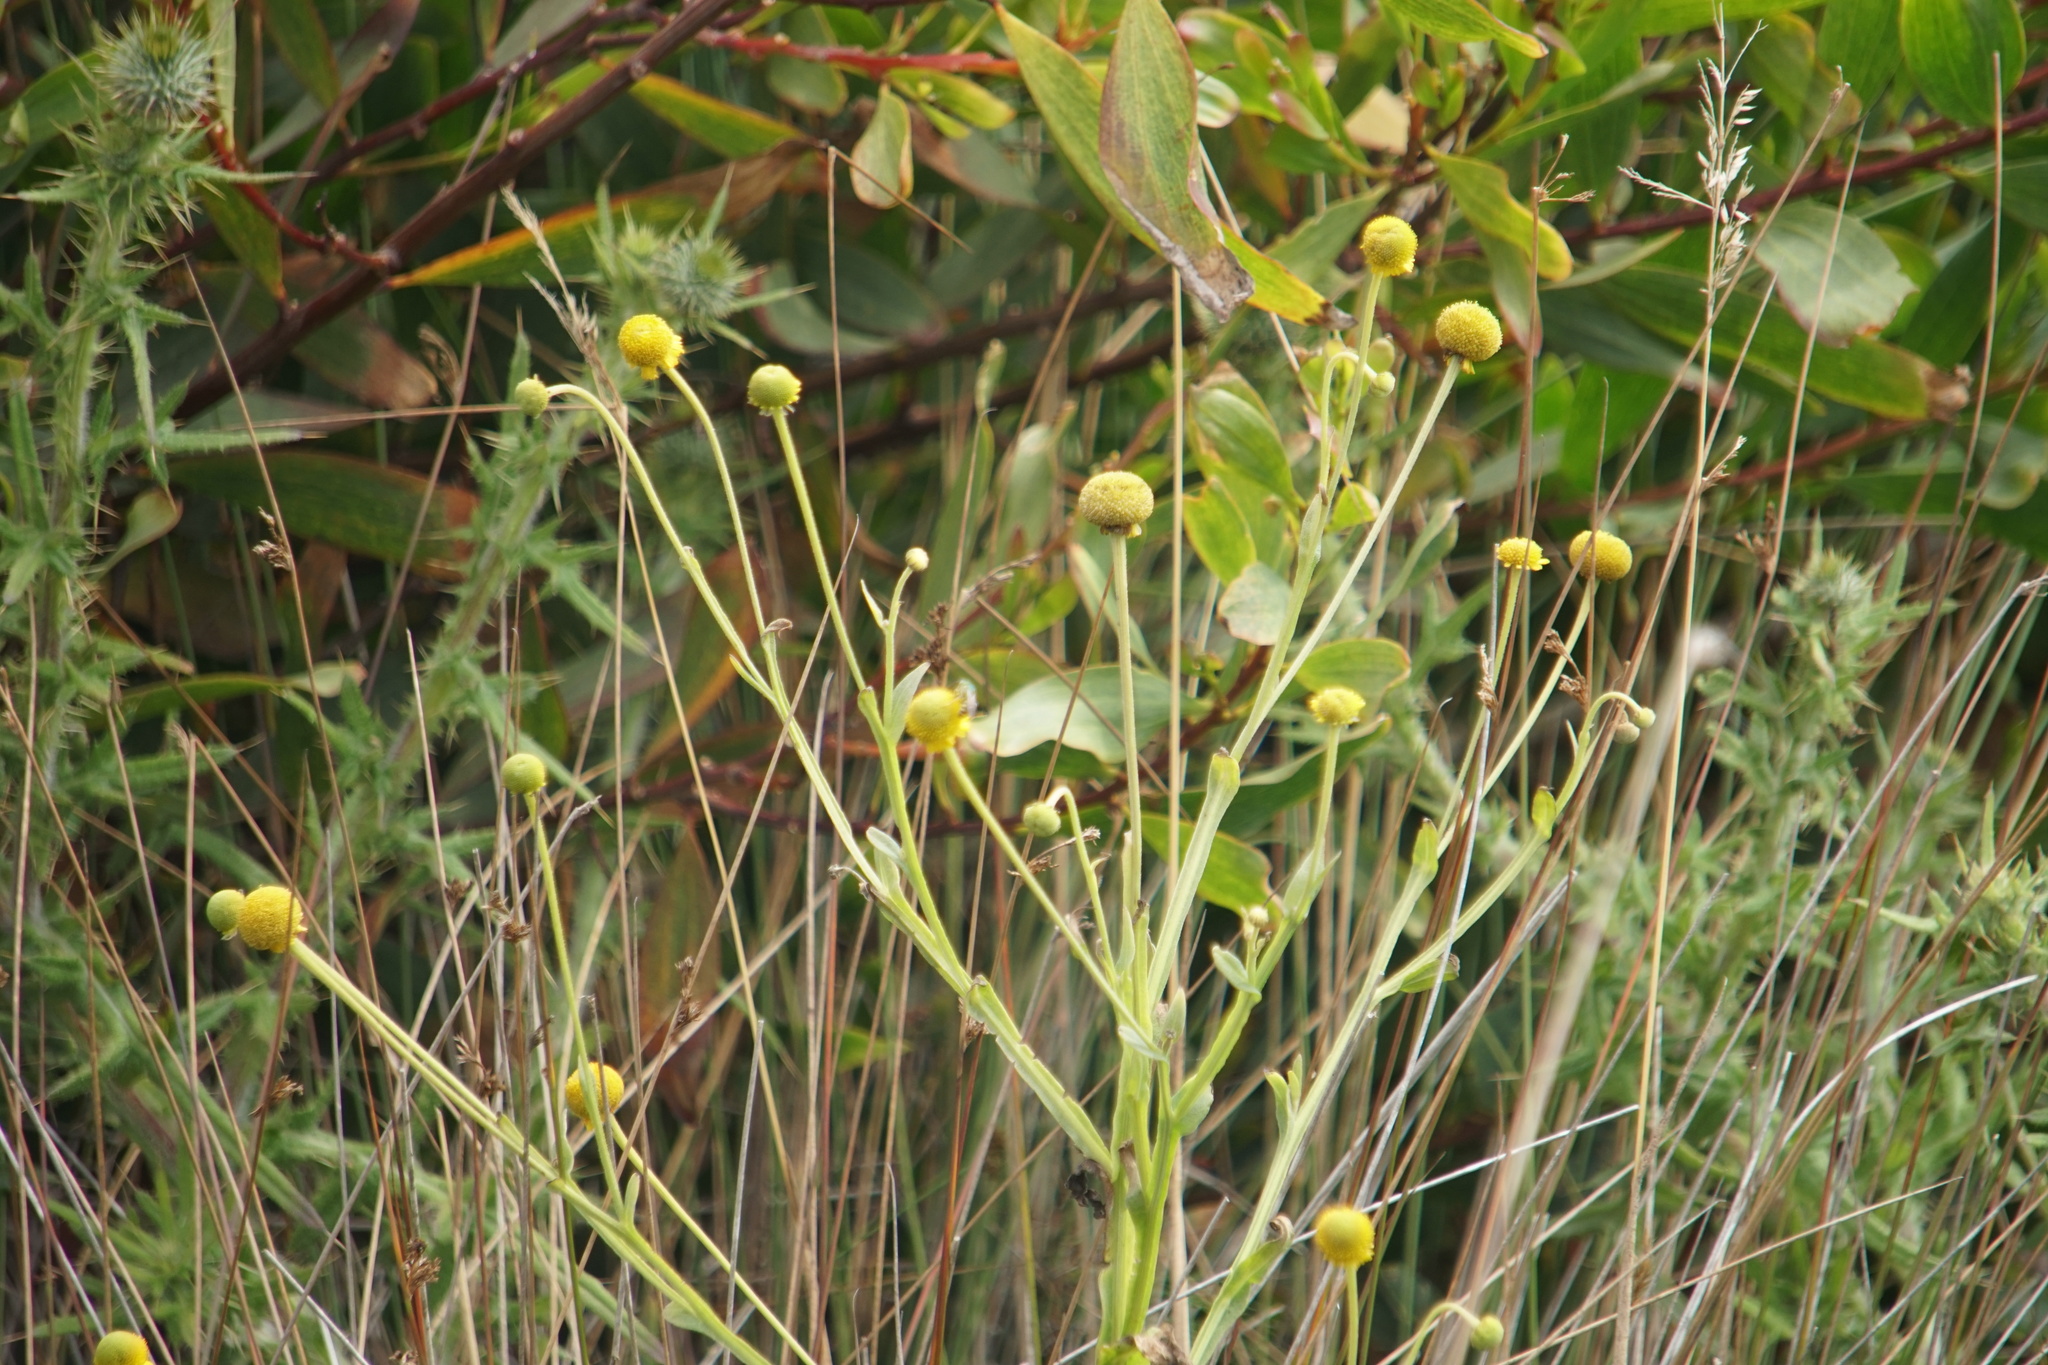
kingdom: Plantae
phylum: Tracheophyta
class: Magnoliopsida
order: Asterales
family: Asteraceae
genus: Helenium
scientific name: Helenium puberulum
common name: Sneezewort
